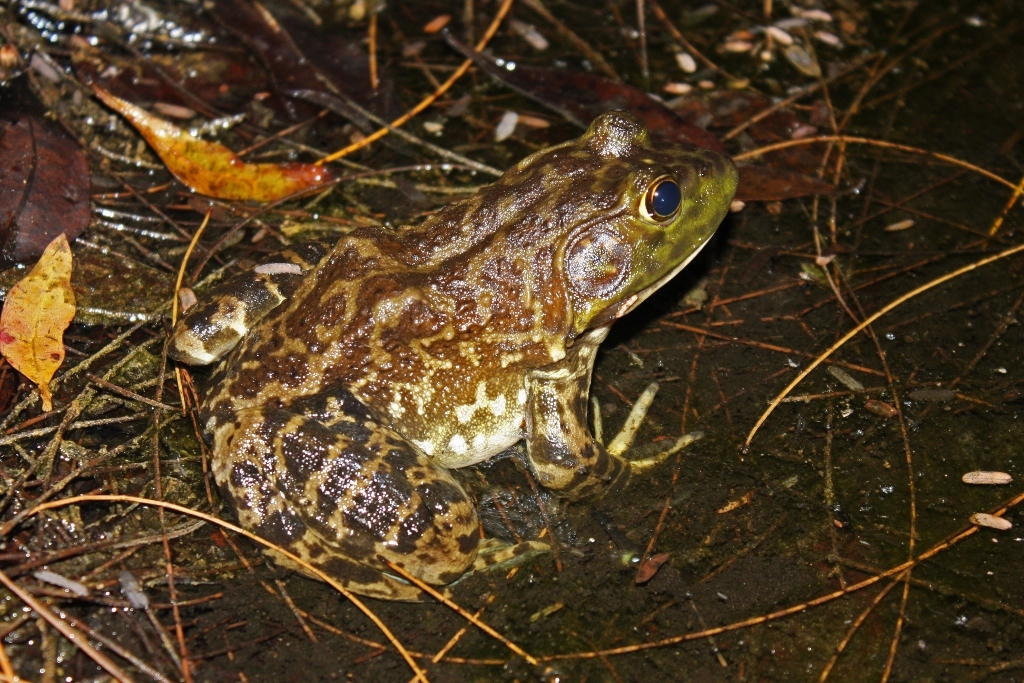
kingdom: Animalia
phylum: Chordata
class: Amphibia
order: Anura
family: Ranidae
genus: Lithobates
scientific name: Lithobates catesbeianus
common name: American bullfrog
